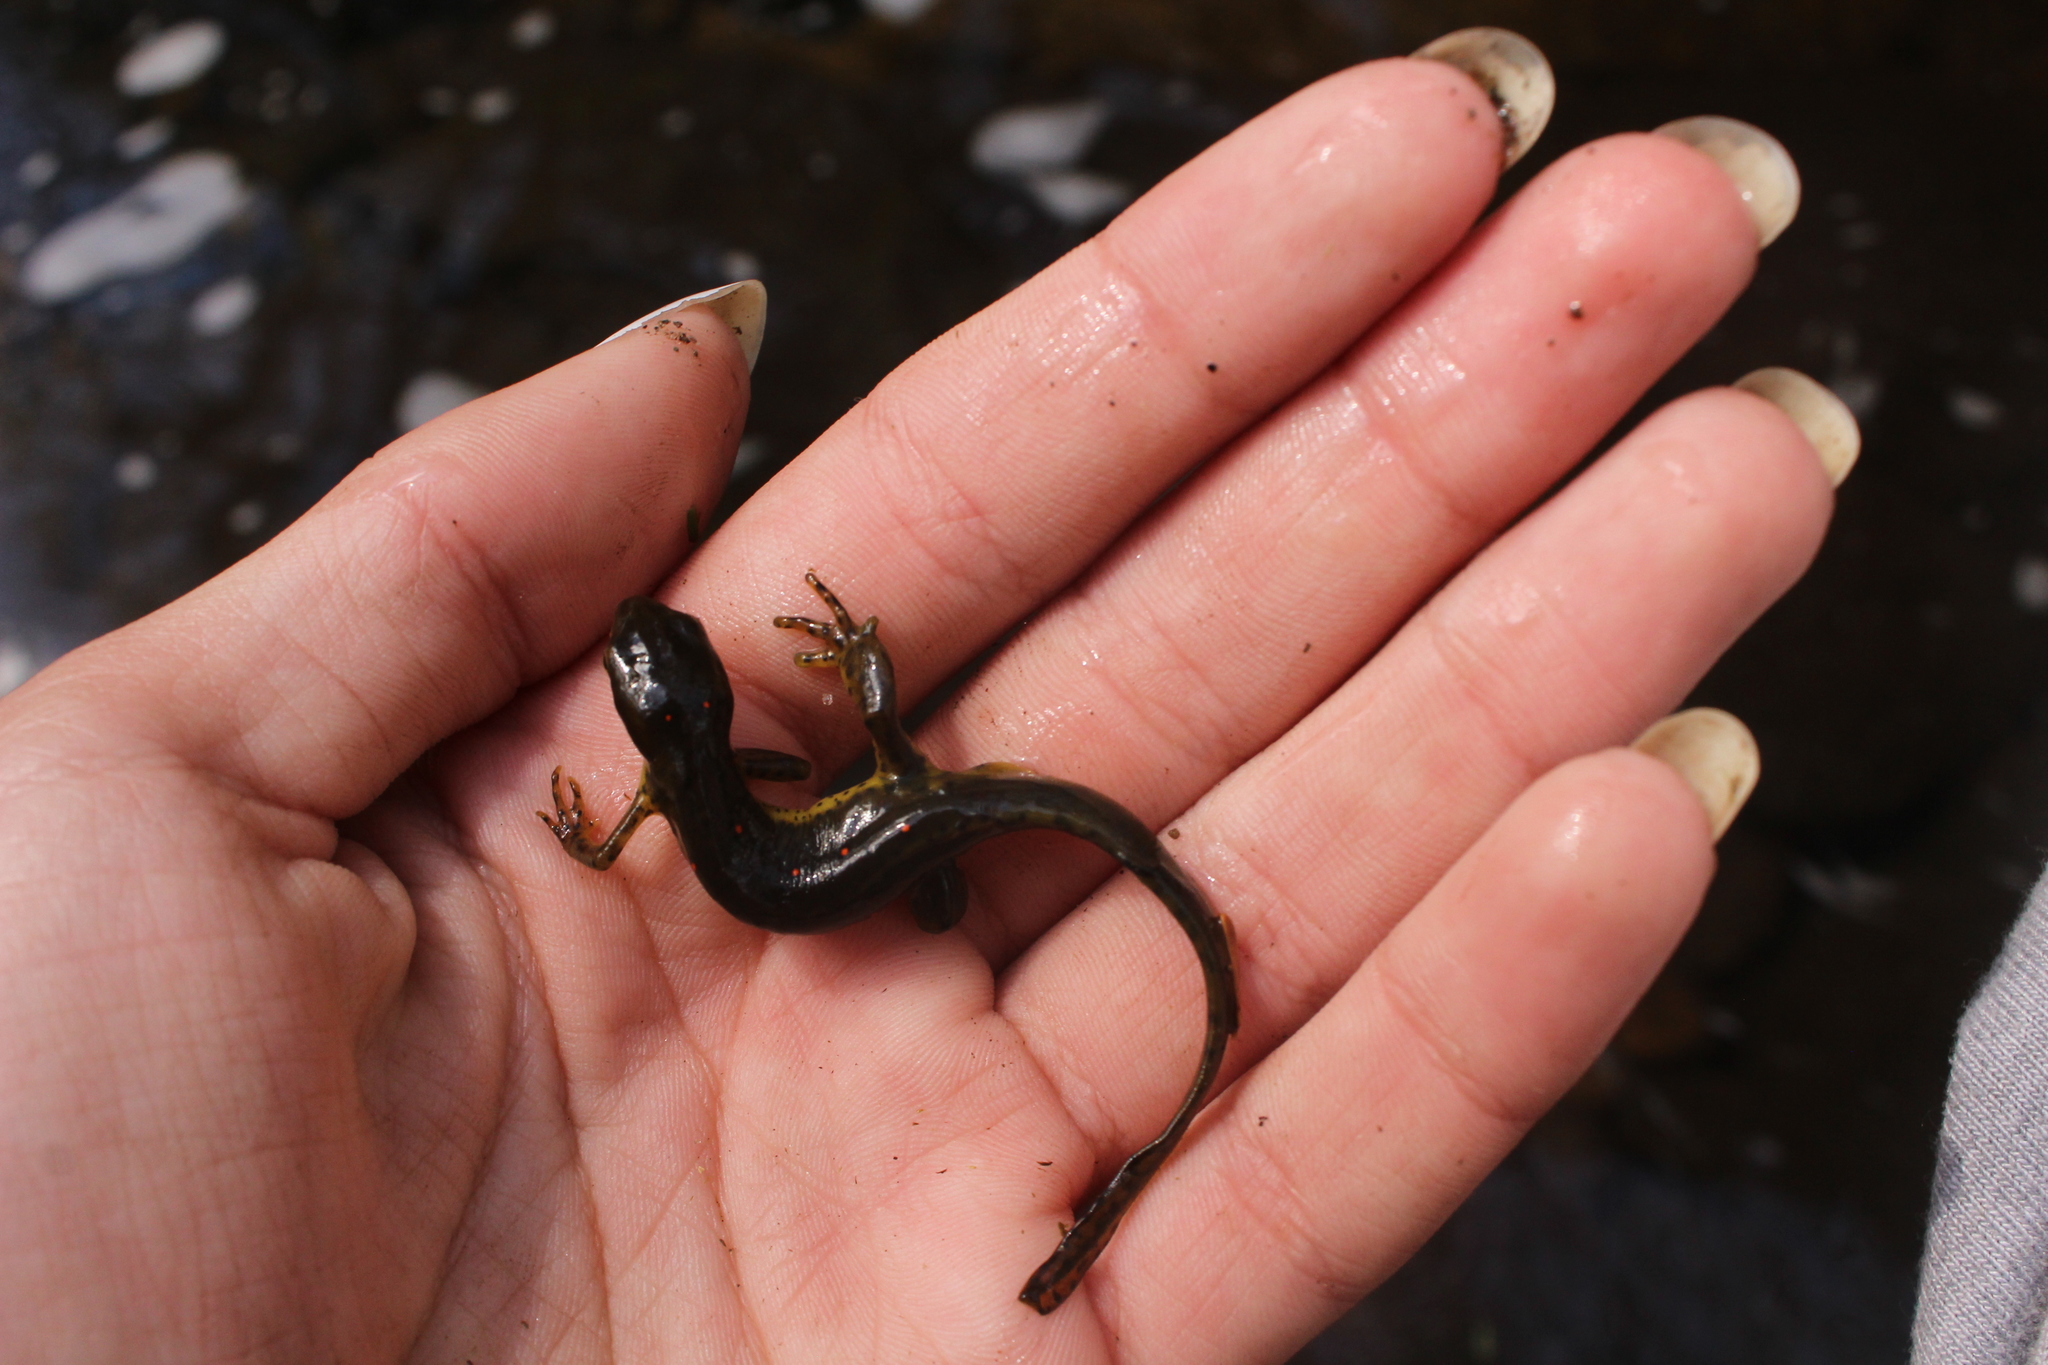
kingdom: Animalia
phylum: Chordata
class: Amphibia
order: Caudata
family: Salamandridae
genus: Notophthalmus
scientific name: Notophthalmus viridescens
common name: Eastern newt
